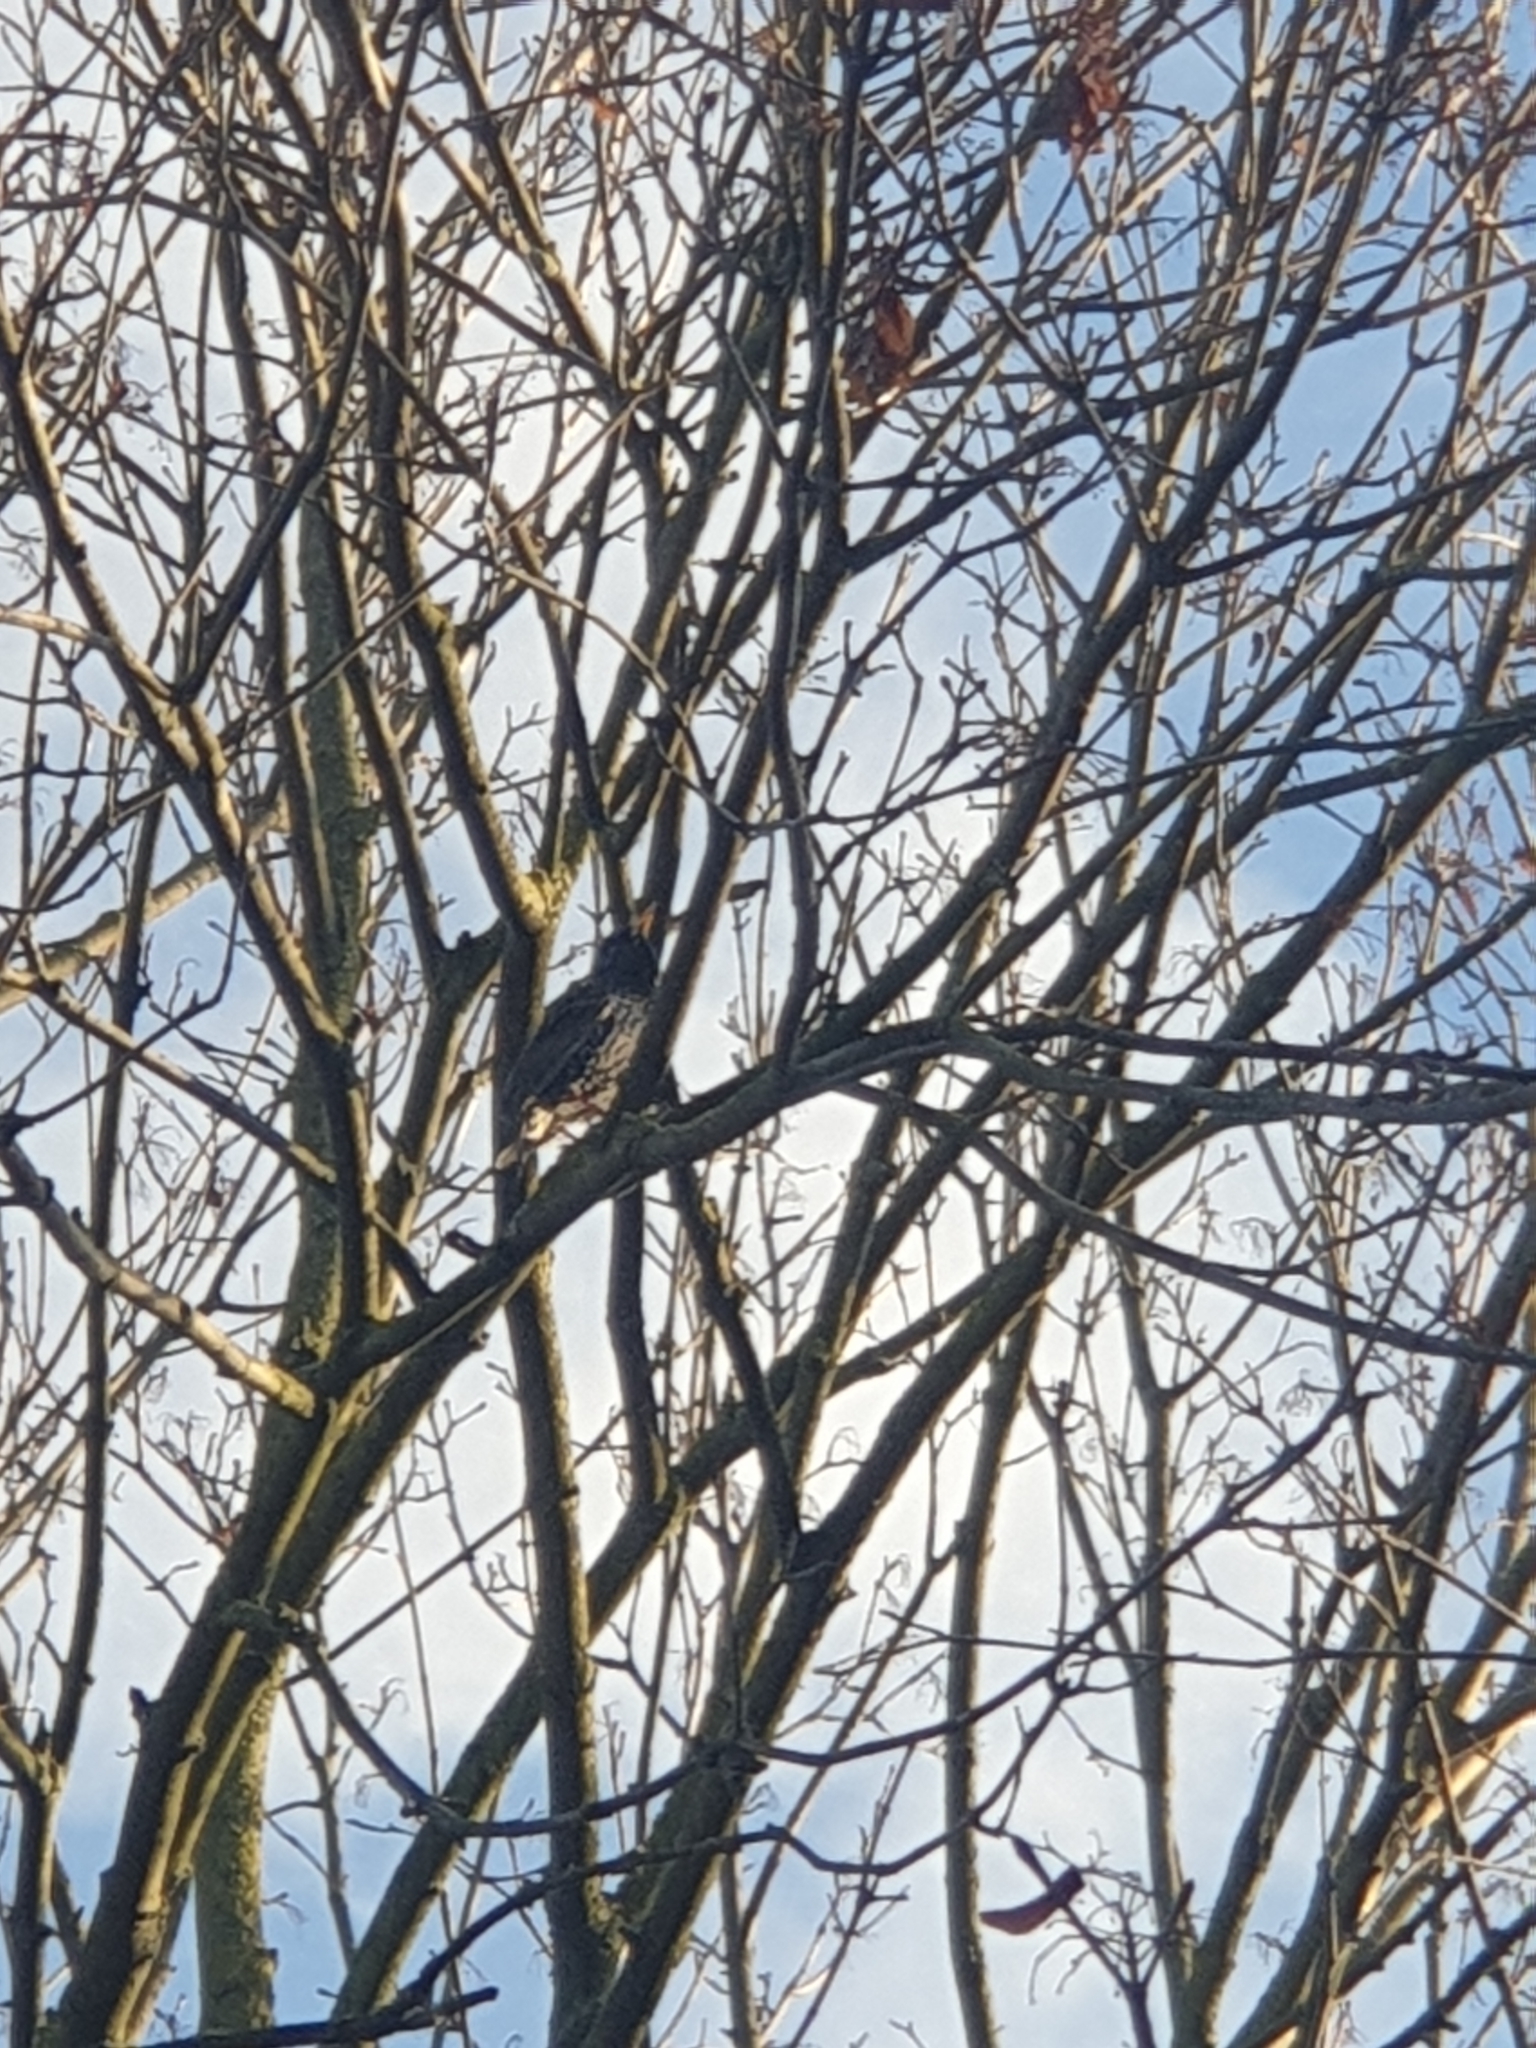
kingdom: Animalia
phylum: Chordata
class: Aves
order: Passeriformes
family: Sturnidae
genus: Sturnus
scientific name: Sturnus vulgaris
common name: Common starling
